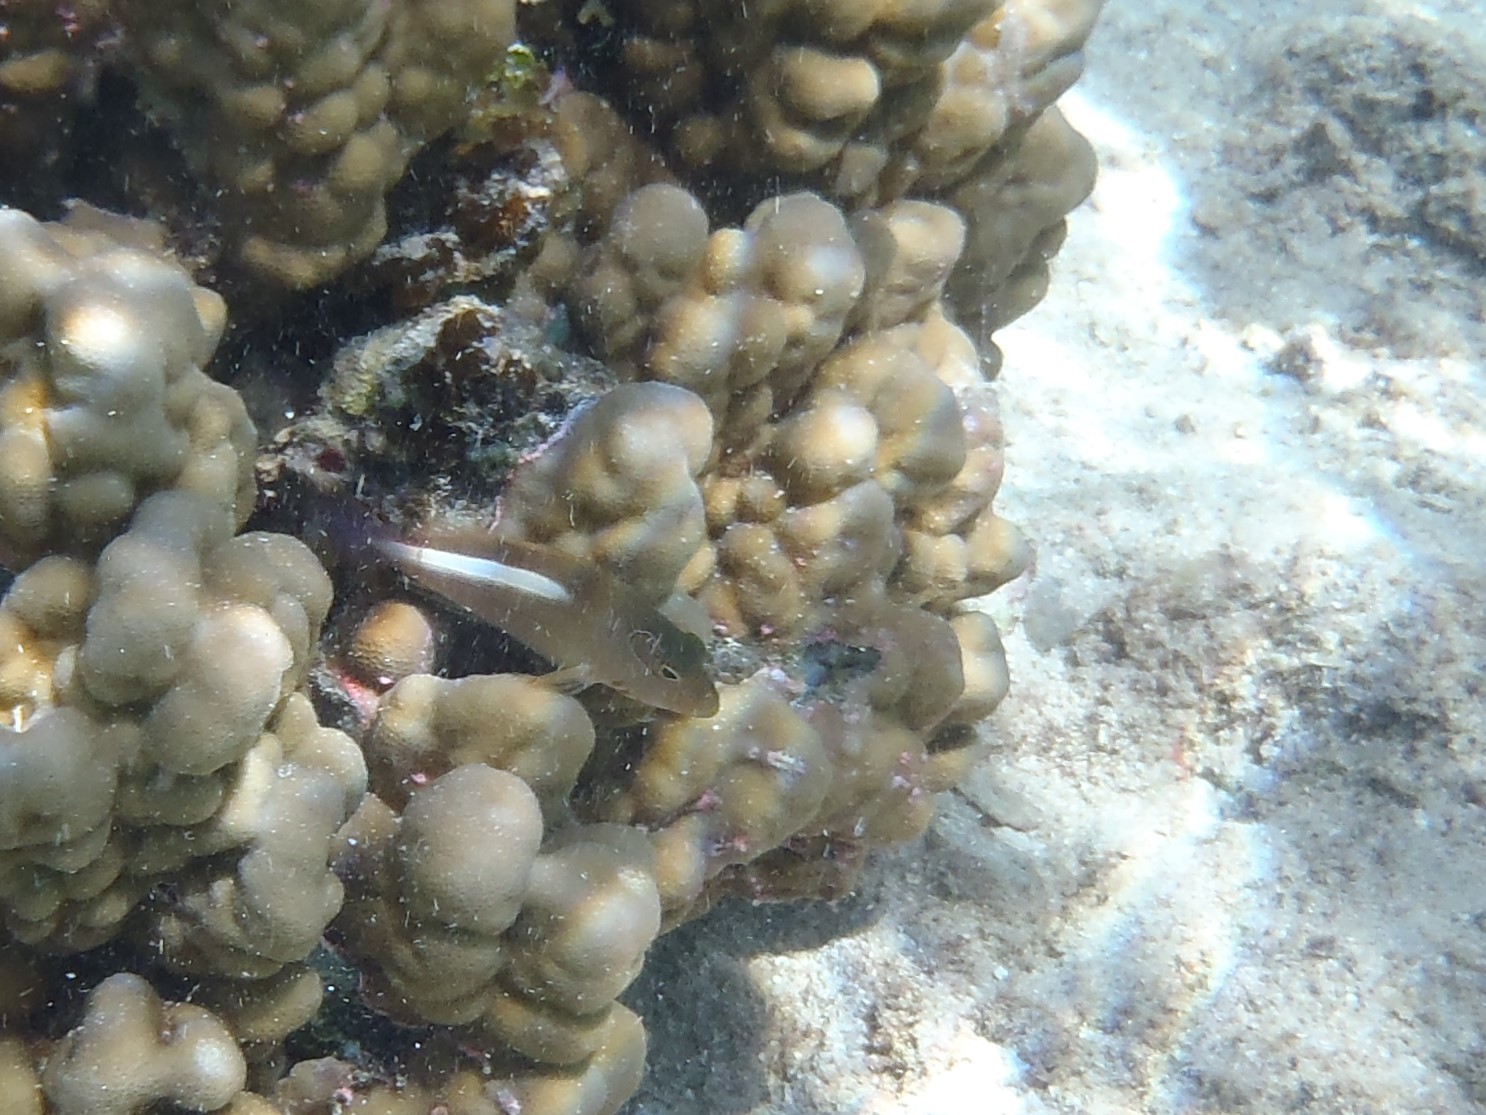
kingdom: Animalia
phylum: Chordata
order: Perciformes
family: Cirrhitidae
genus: Paracirrhites
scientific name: Paracirrhites arcatus
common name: Arc-eye hawkfish
